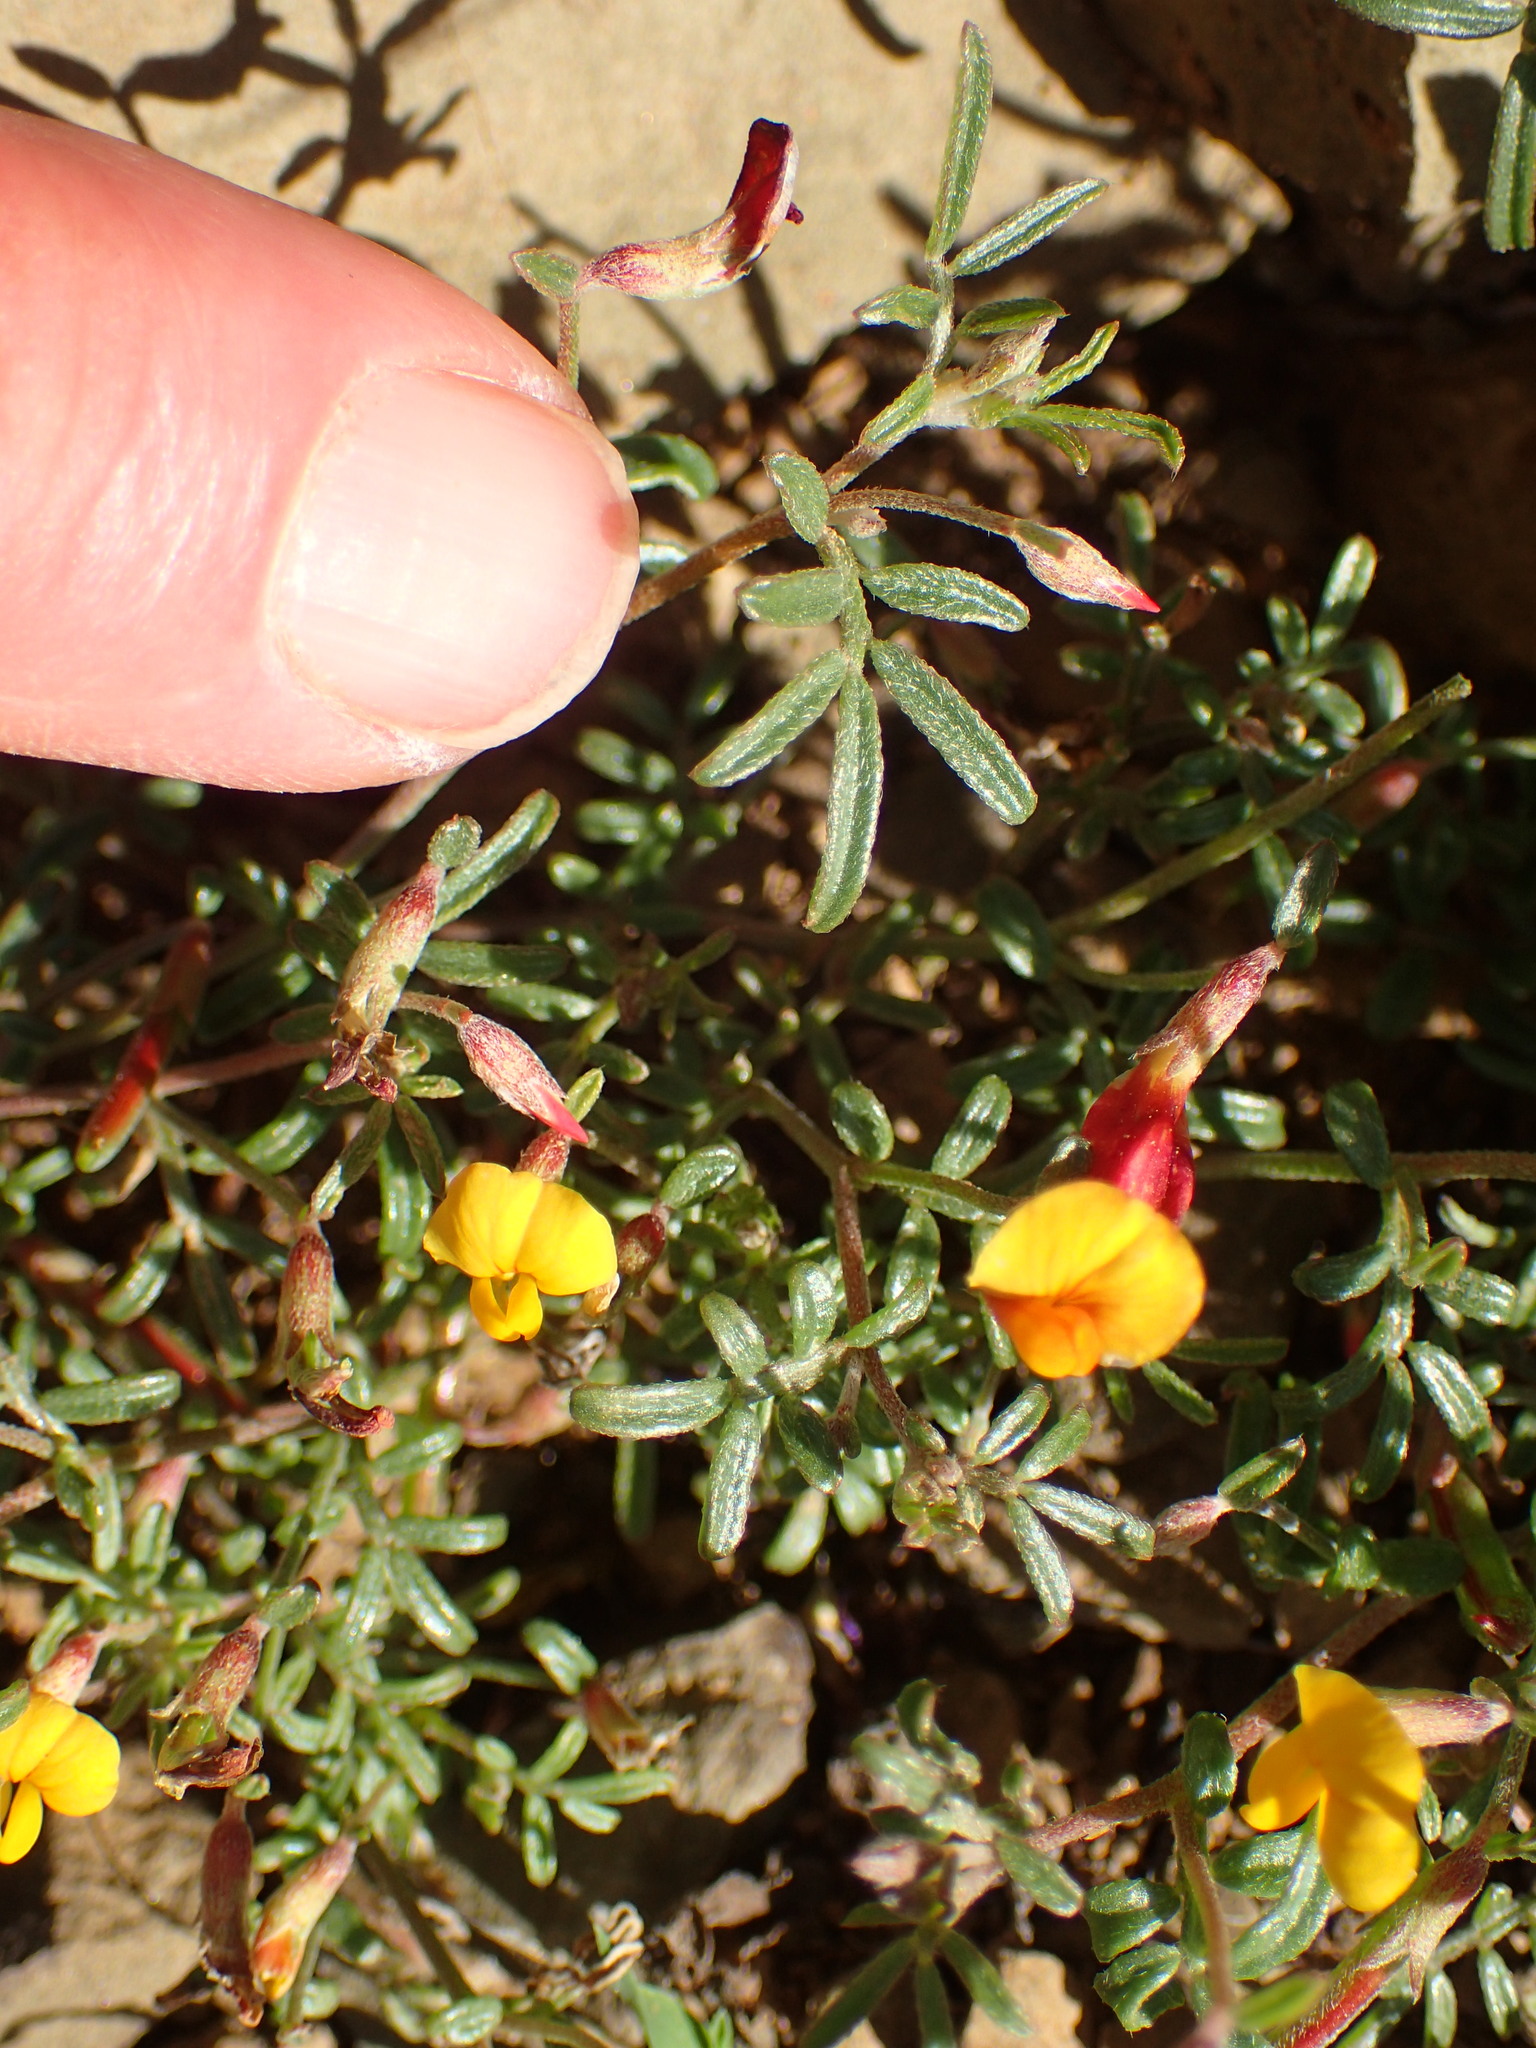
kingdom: Plantae
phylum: Tracheophyta
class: Magnoliopsida
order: Fabales
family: Fabaceae
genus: Acmispon
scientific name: Acmispon strigosus
